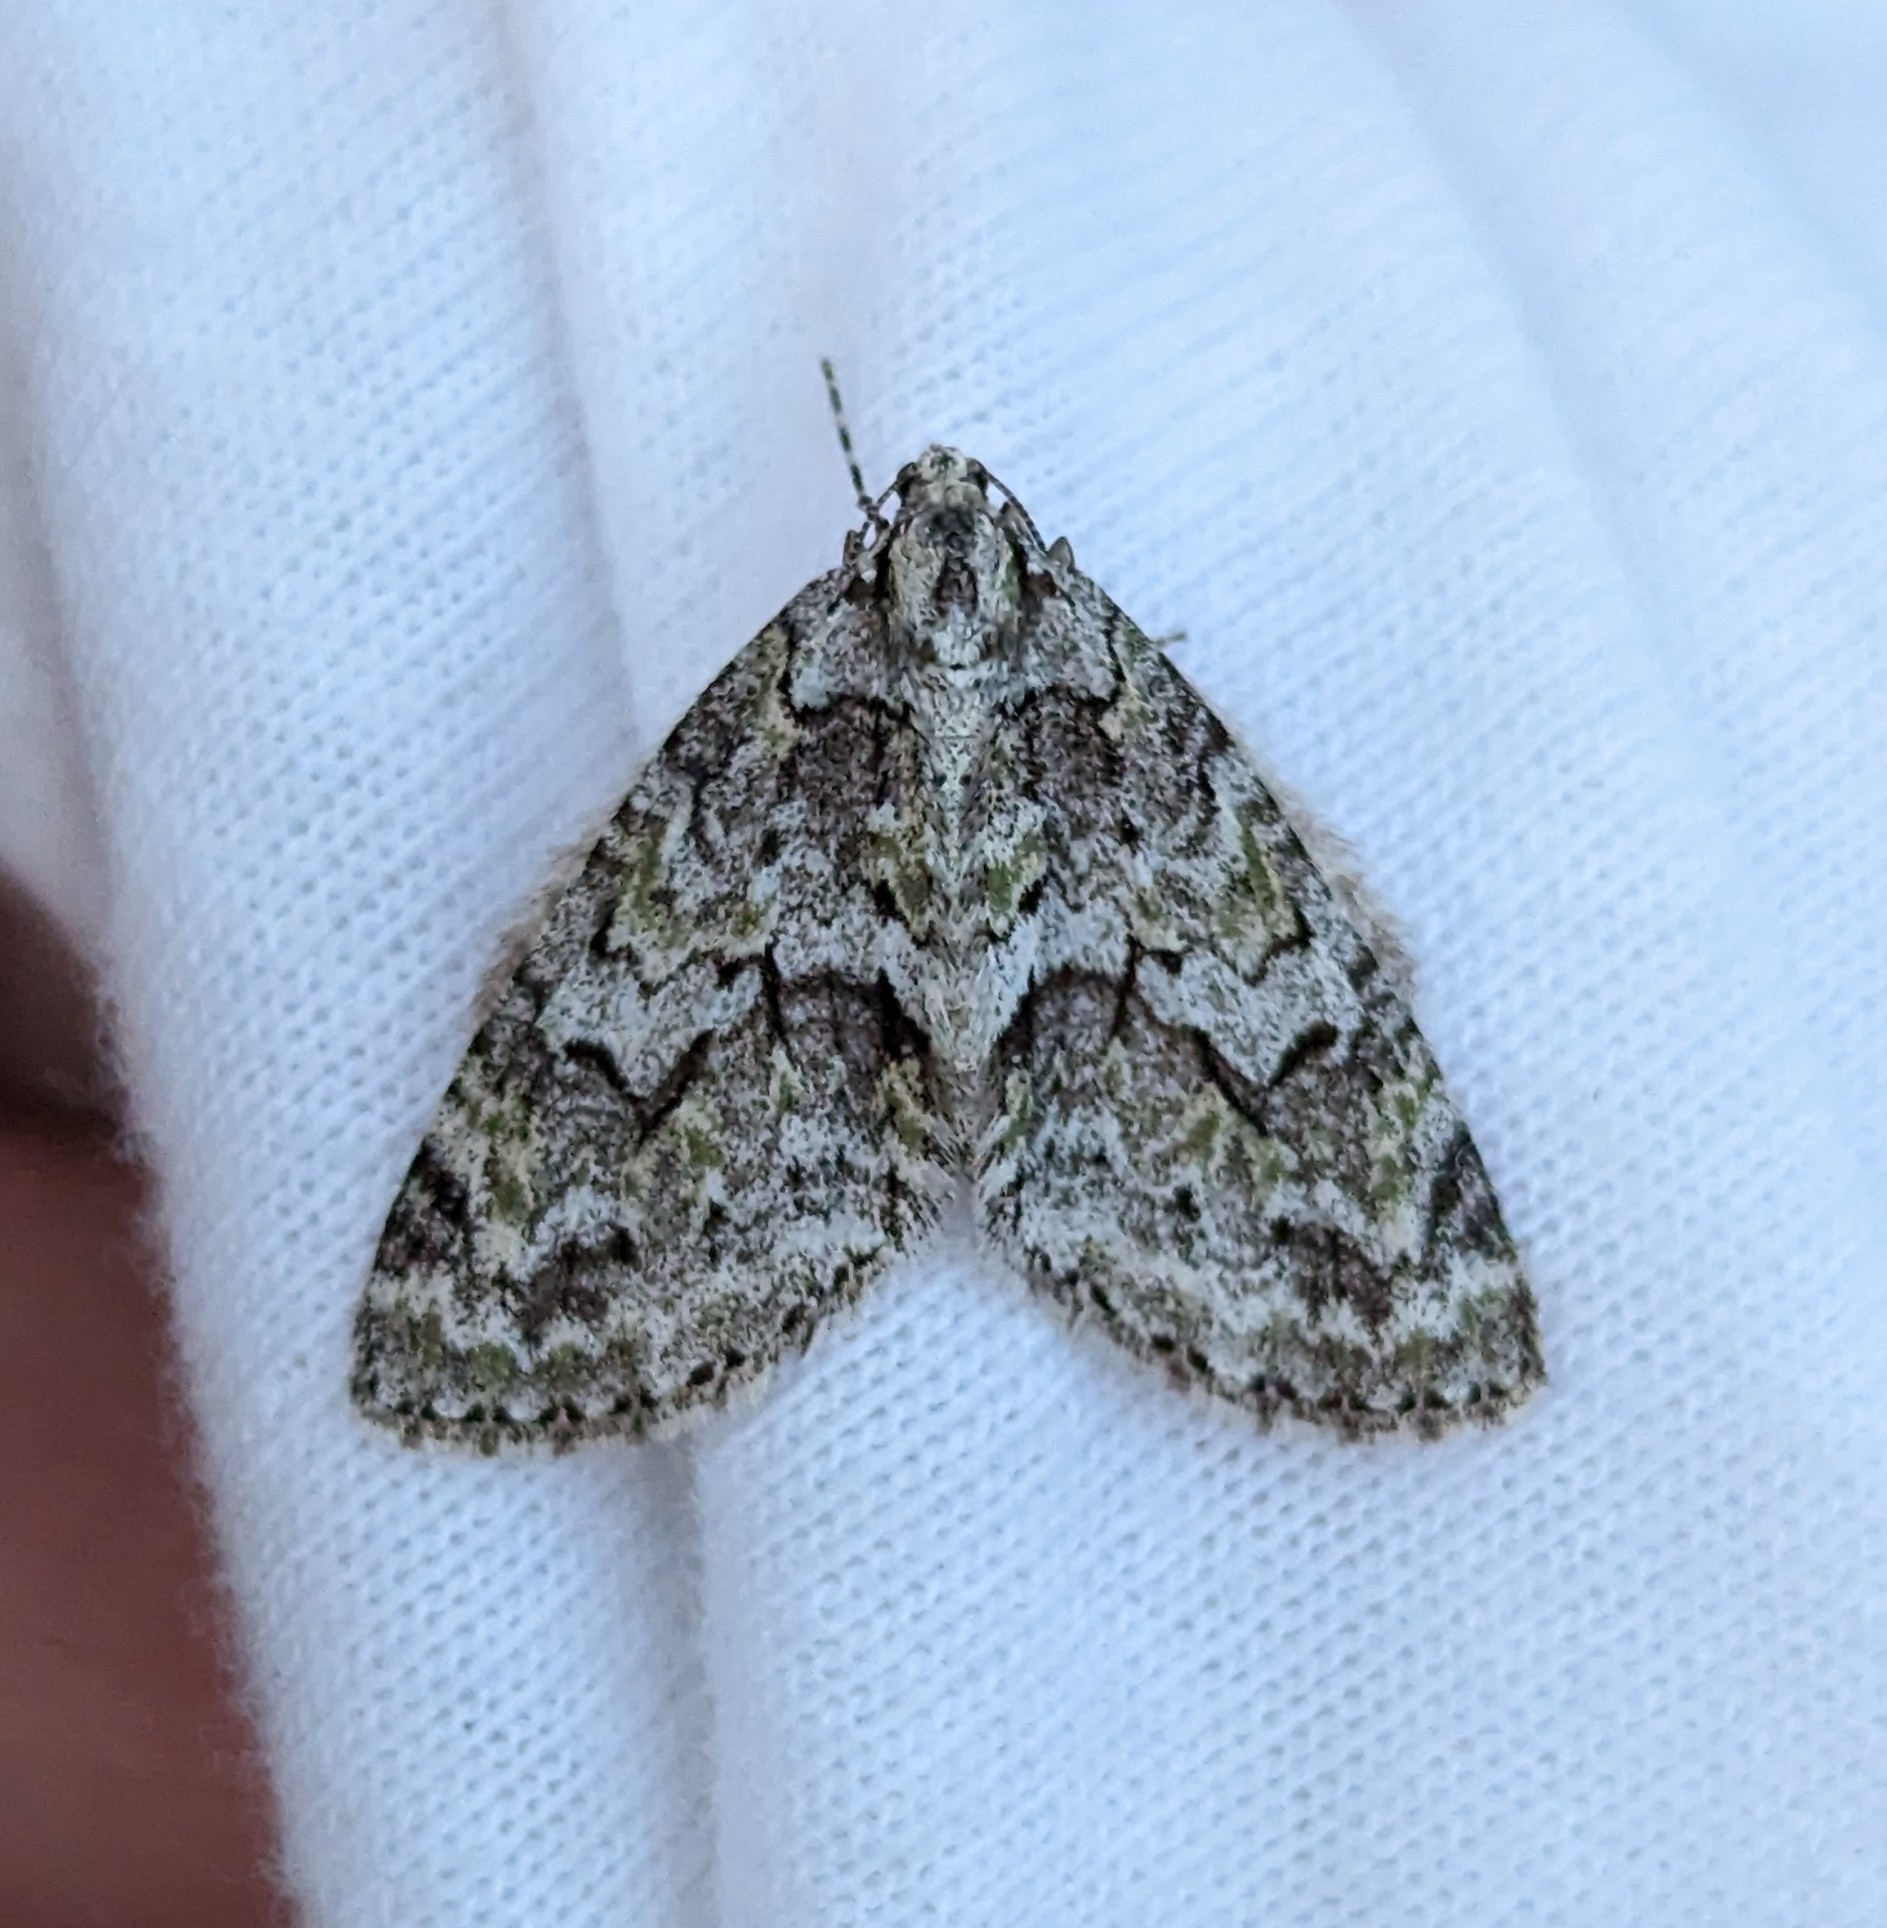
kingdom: Animalia
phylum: Arthropoda
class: Insecta
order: Lepidoptera
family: Geometridae
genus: Cladara
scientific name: Cladara limitaria
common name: Mottled gray carpet
